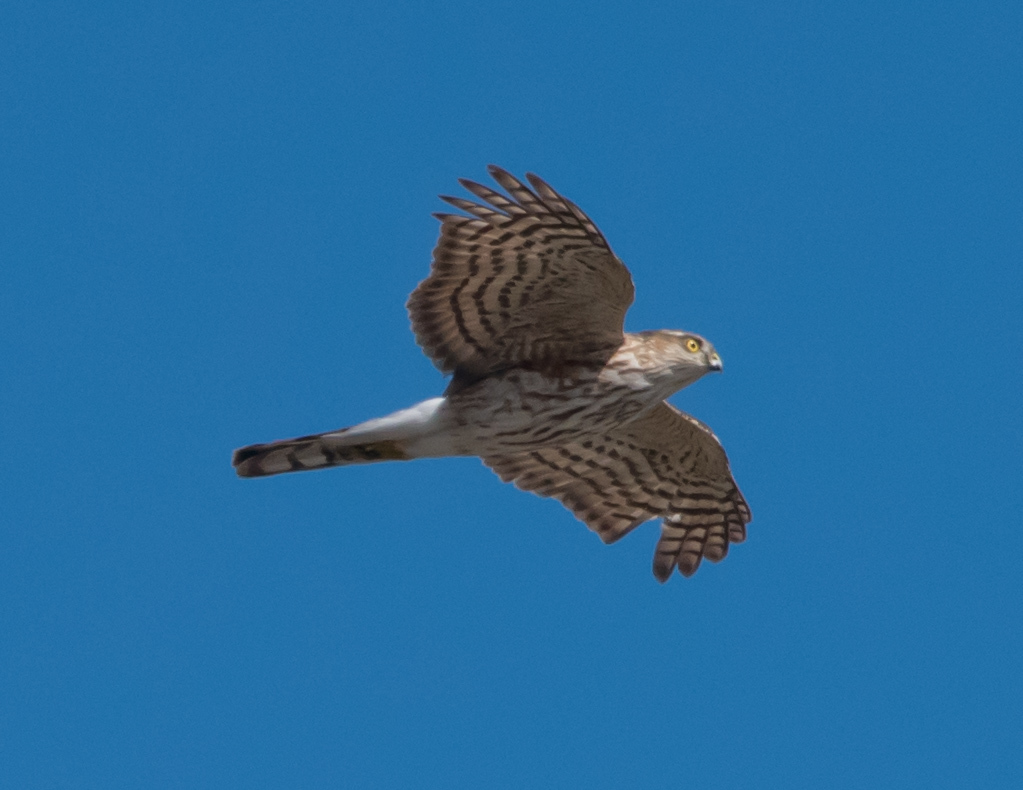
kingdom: Animalia
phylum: Chordata
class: Aves
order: Accipitriformes
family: Accipitridae
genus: Accipiter
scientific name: Accipiter striatus
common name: Sharp-shinned hawk
